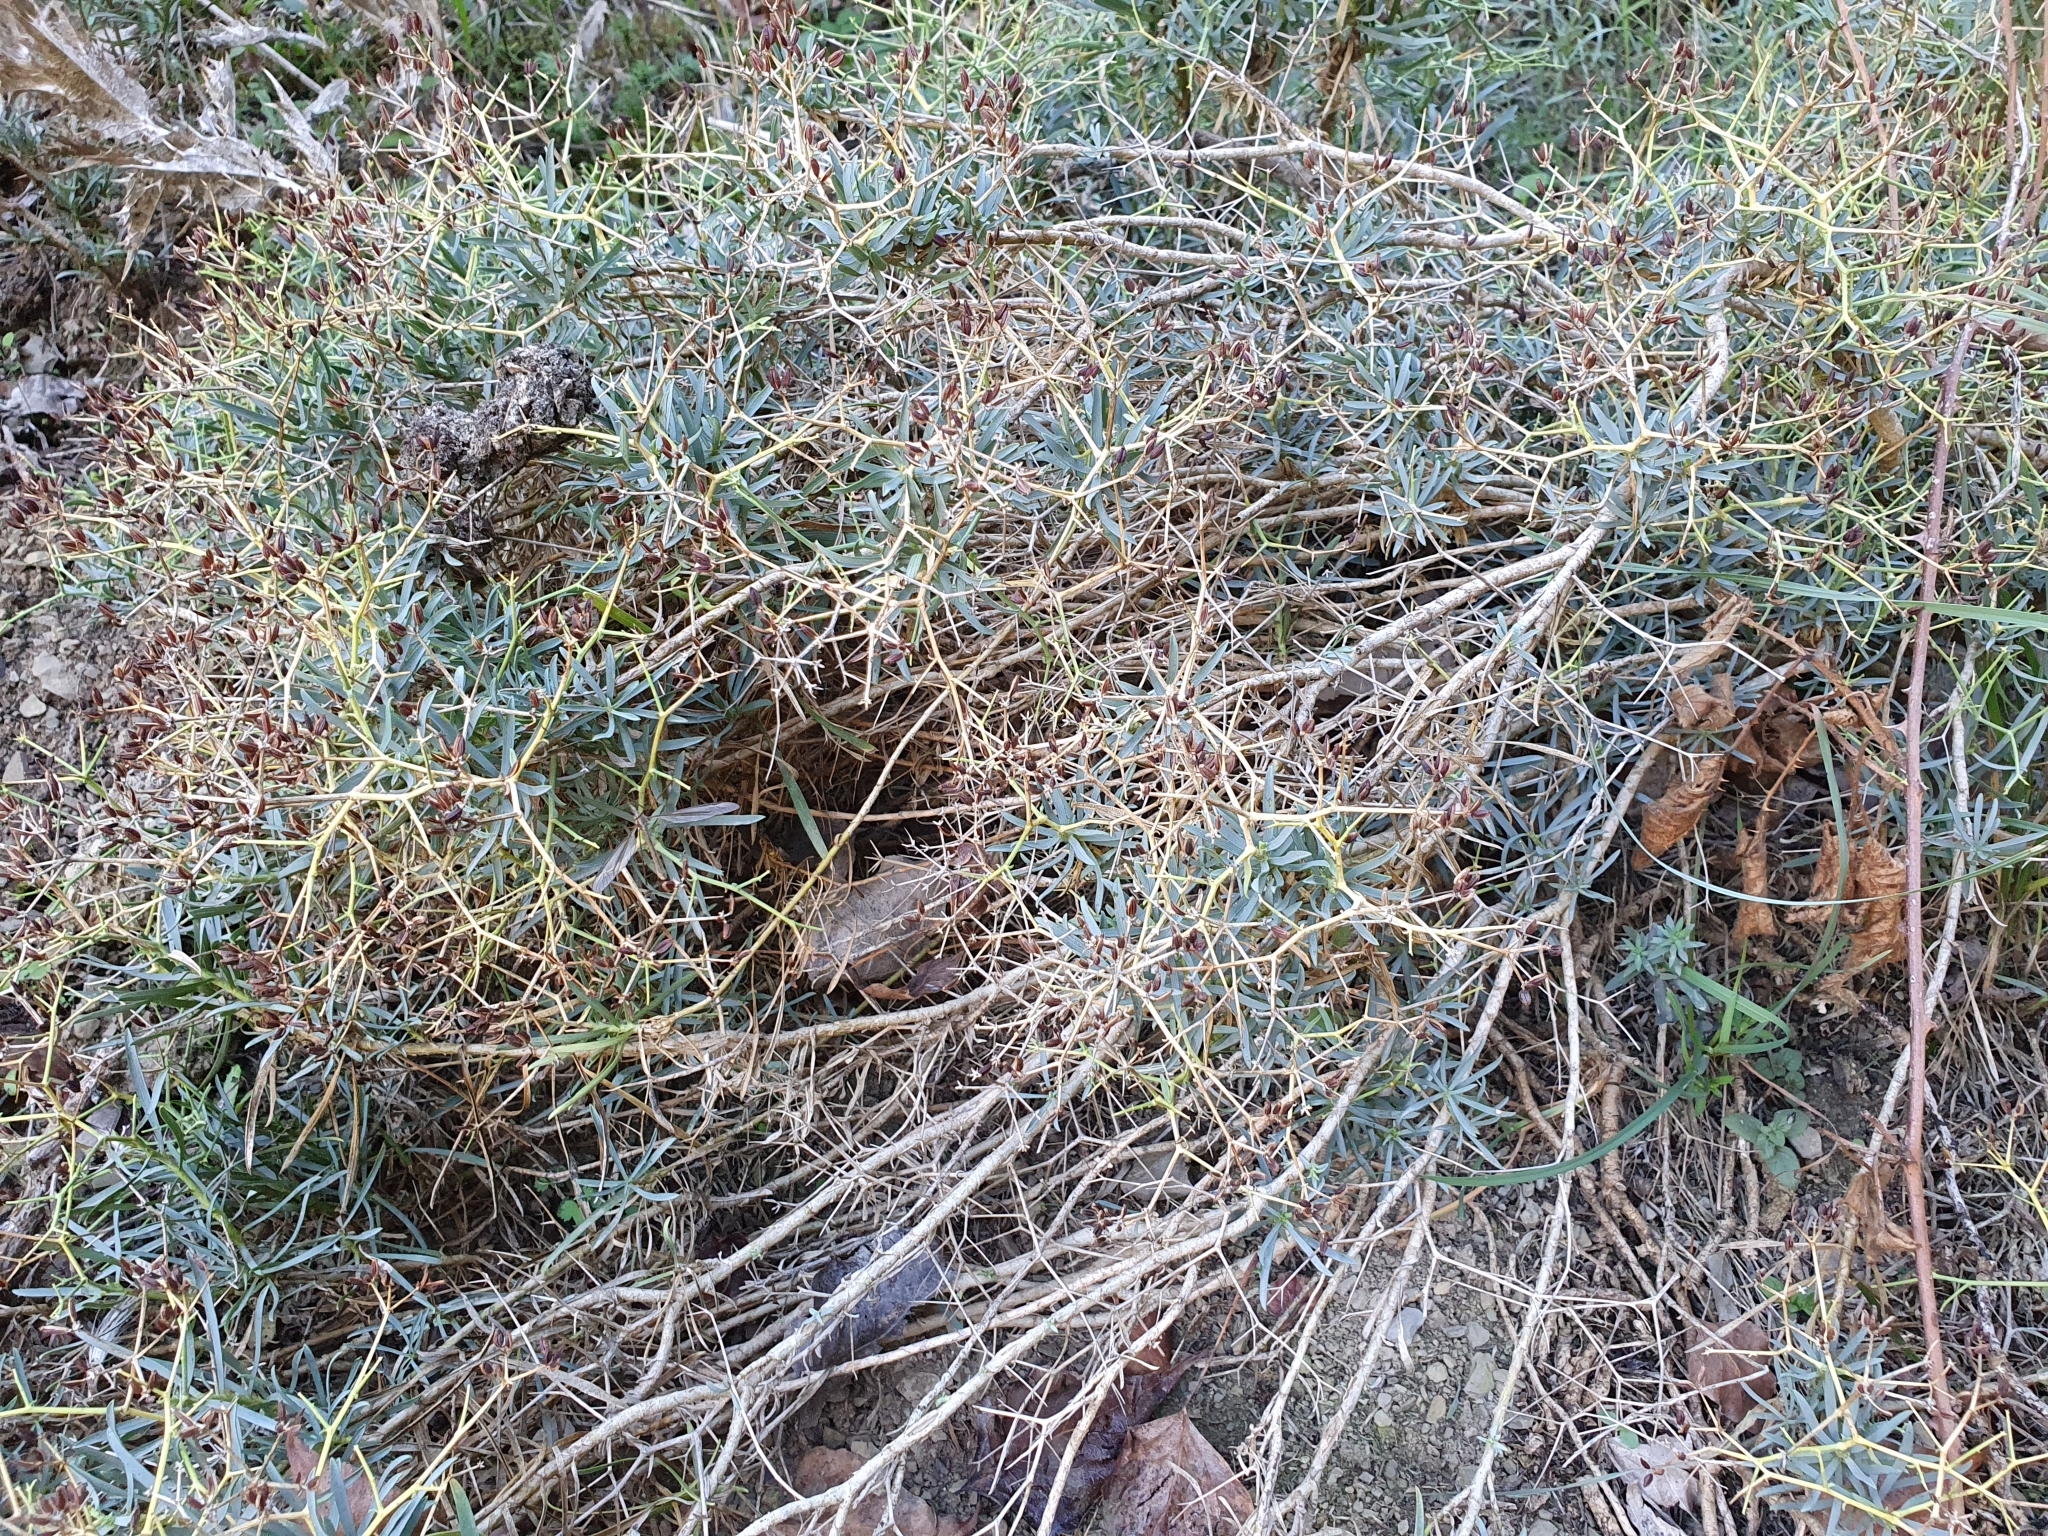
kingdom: Plantae
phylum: Tracheophyta
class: Magnoliopsida
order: Apiales
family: Apiaceae
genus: Bupleurum
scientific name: Bupleurum fruticescens
